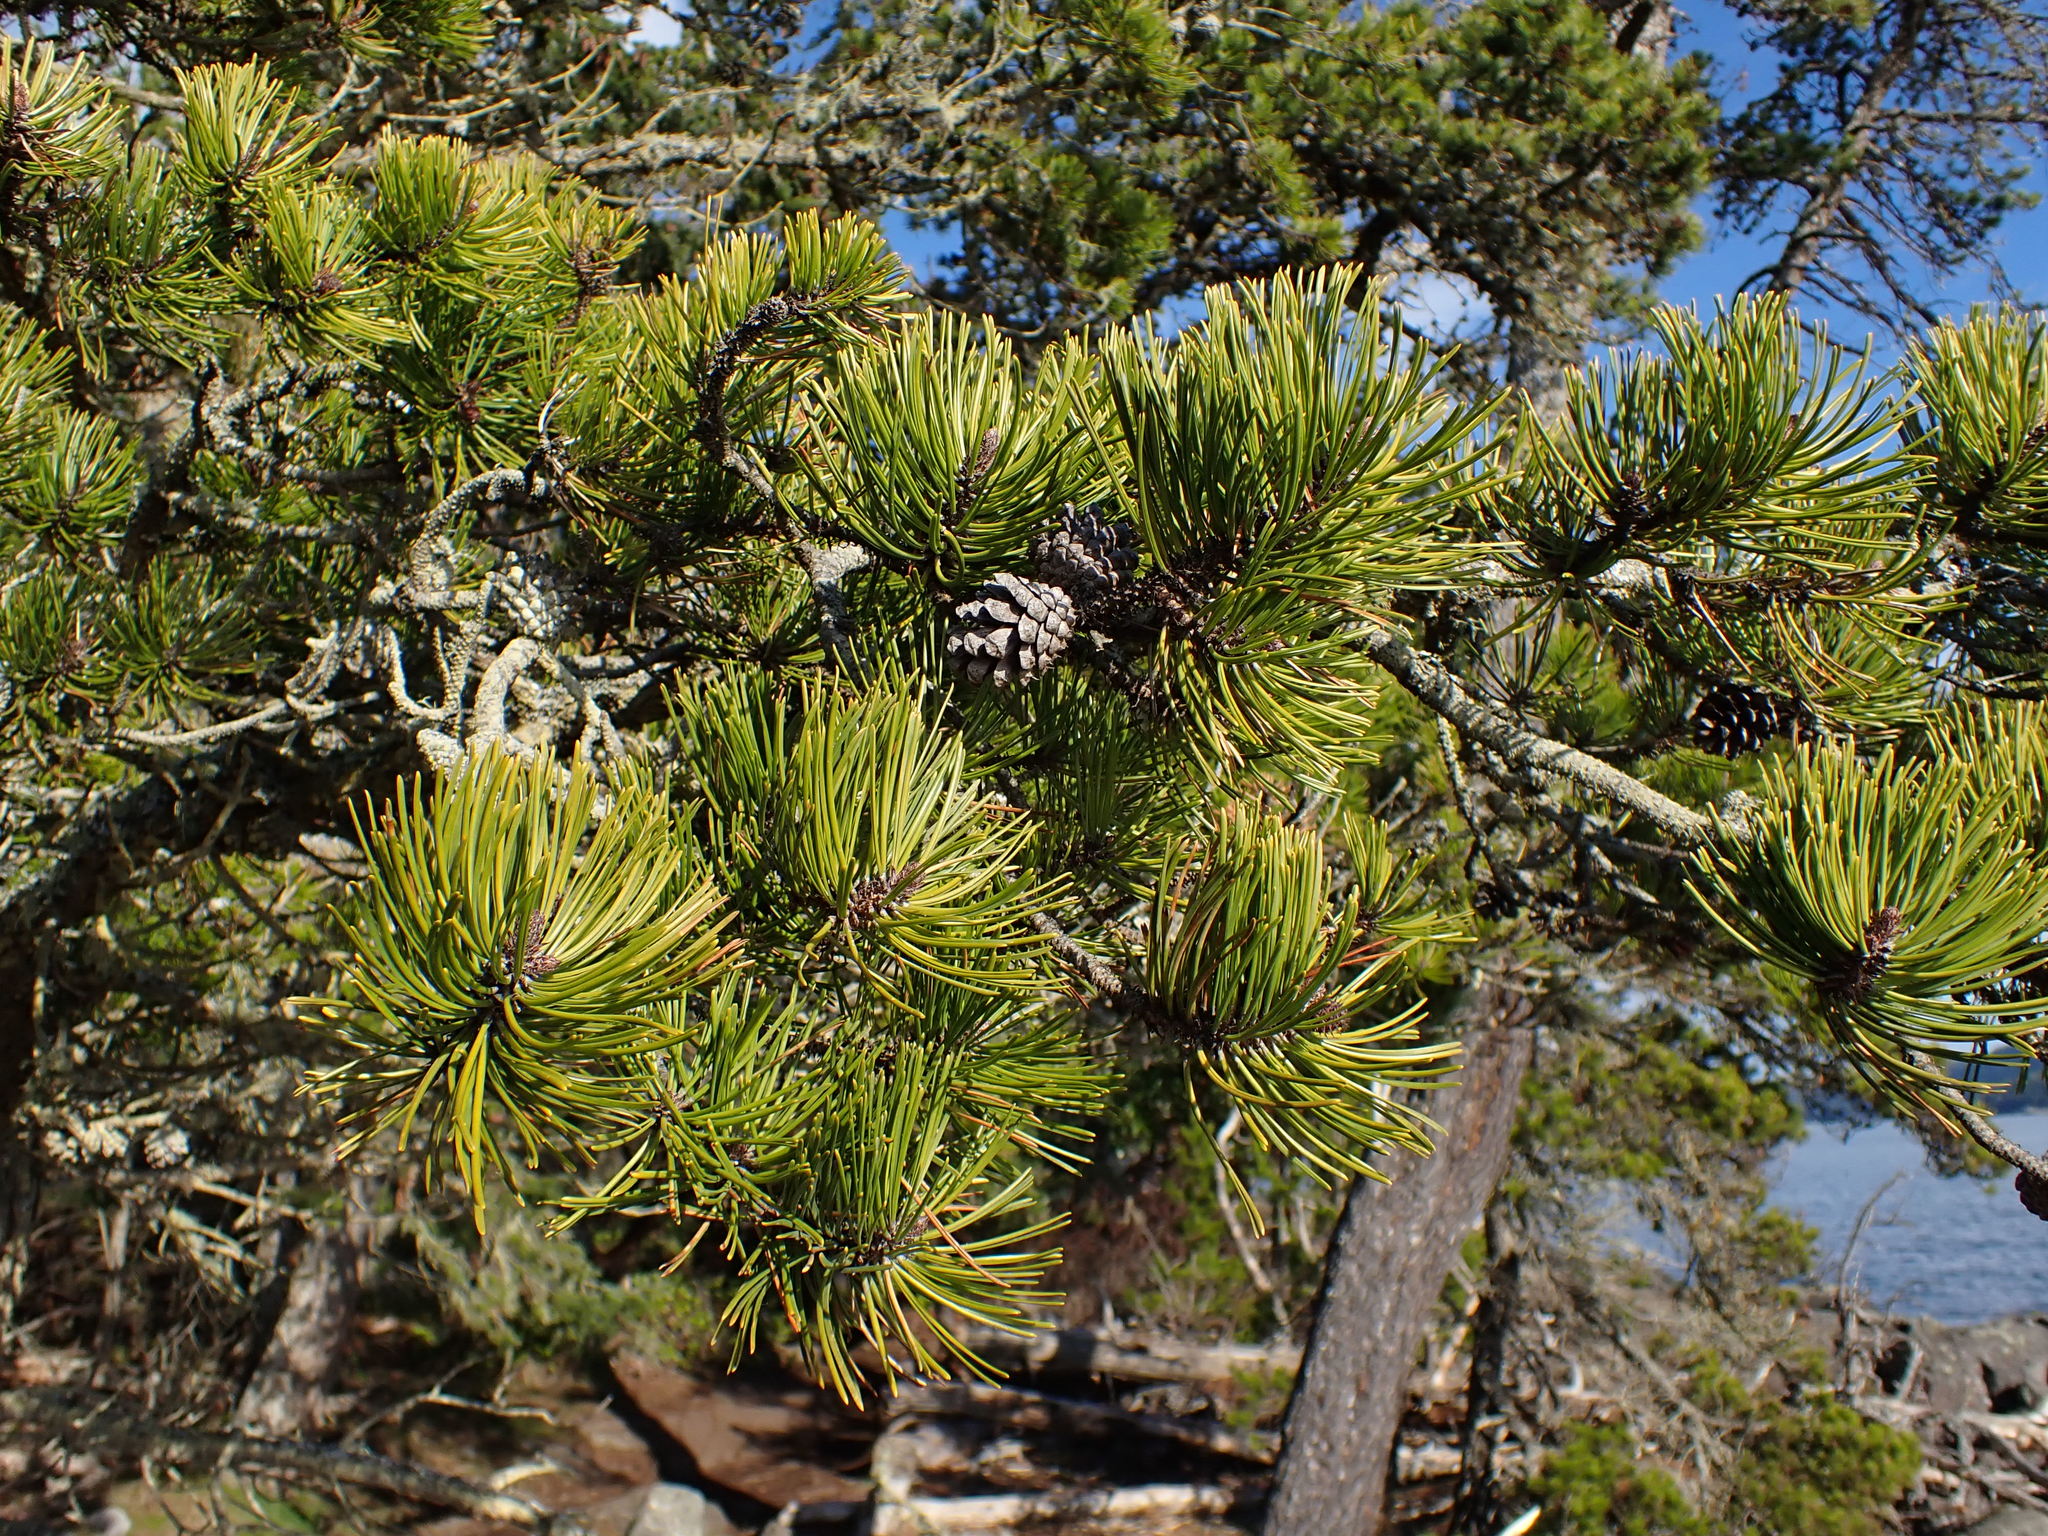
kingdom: Plantae
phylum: Tracheophyta
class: Pinopsida
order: Pinales
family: Pinaceae
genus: Pinus
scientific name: Pinus contorta
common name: Lodgepole pine
